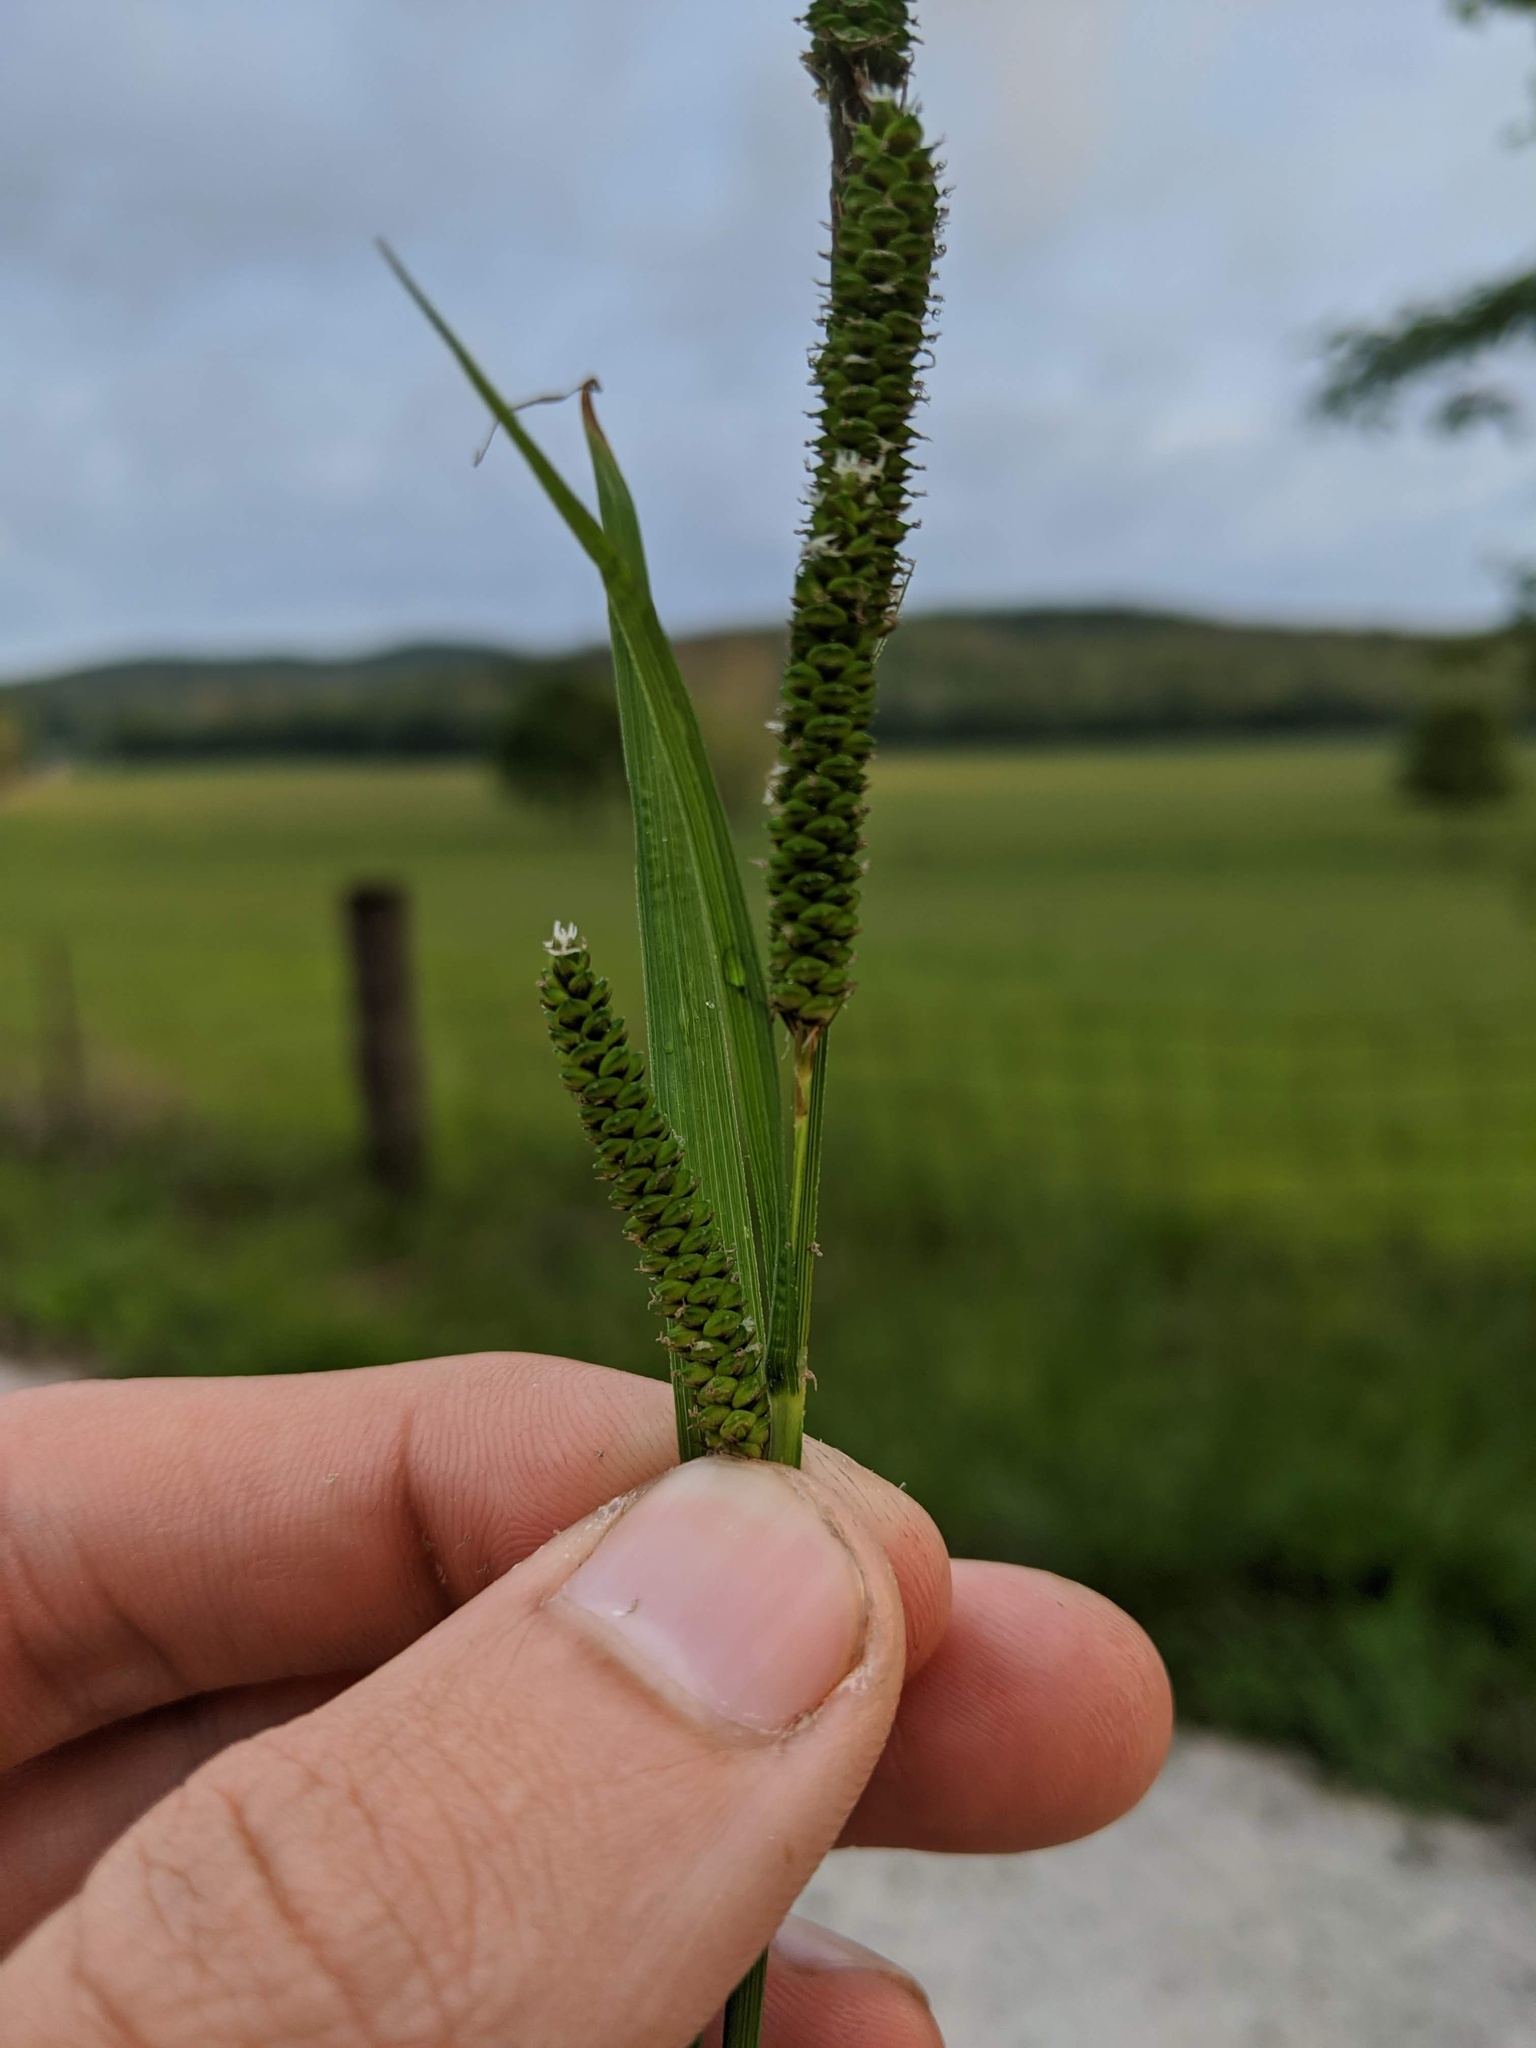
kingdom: Plantae
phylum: Tracheophyta
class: Liliopsida
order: Poales
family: Cyperaceae
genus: Carex
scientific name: Carex shortiana
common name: Short's sedge
